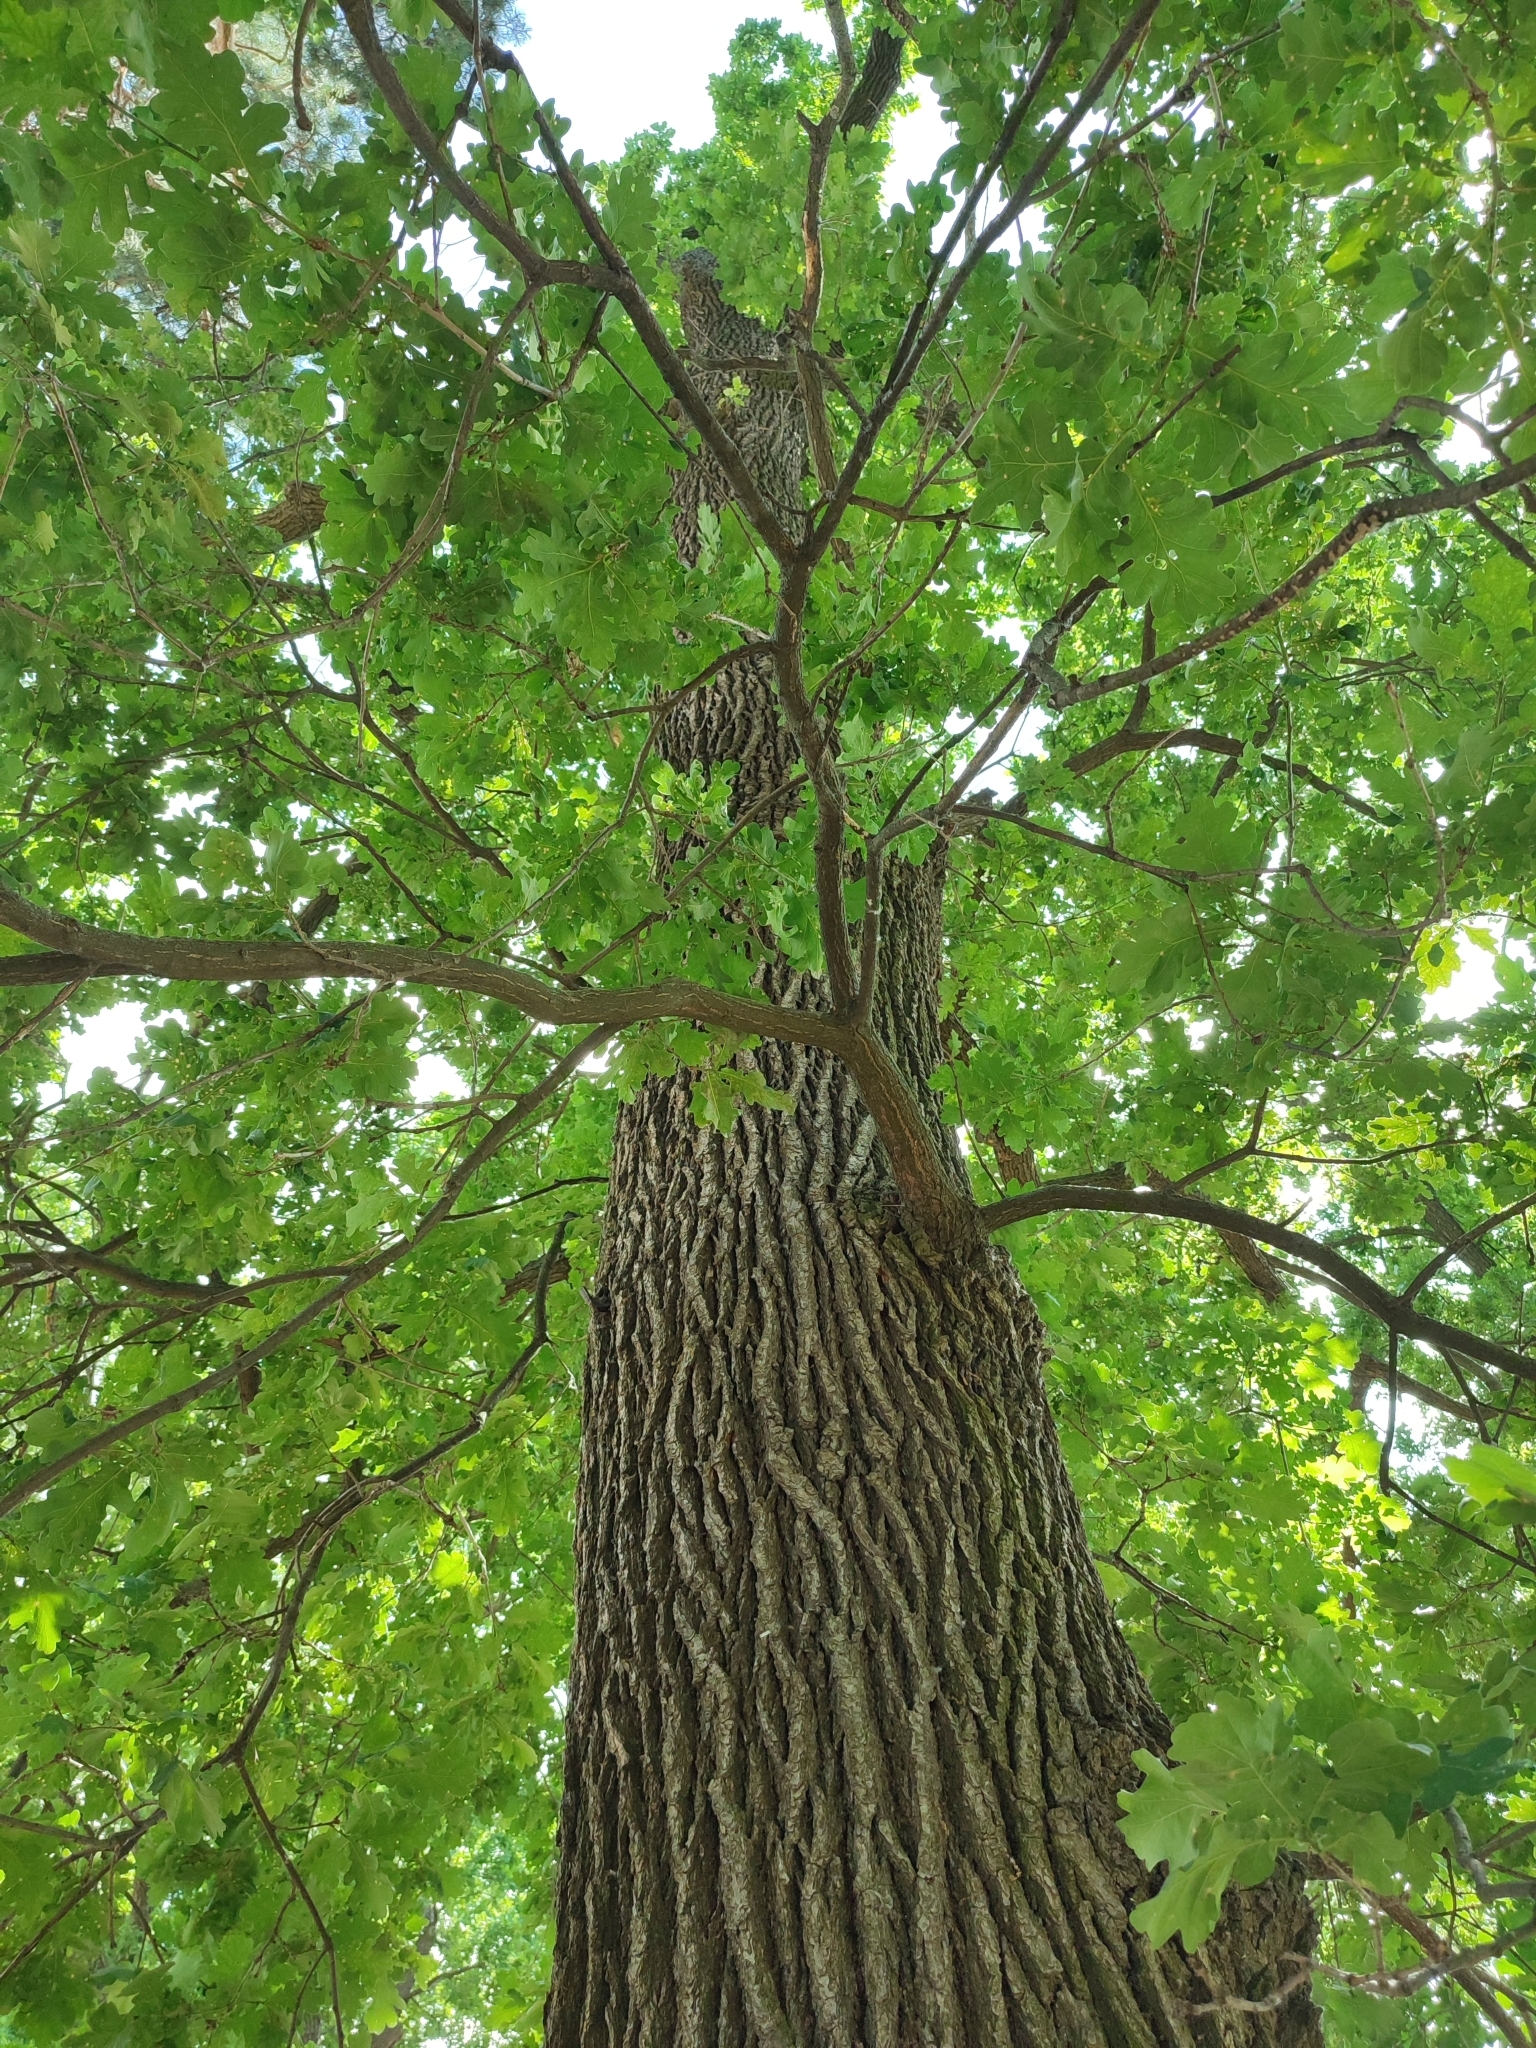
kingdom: Plantae
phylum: Tracheophyta
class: Magnoliopsida
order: Fagales
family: Fagaceae
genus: Quercus
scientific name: Quercus robur
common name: Pedunculate oak
